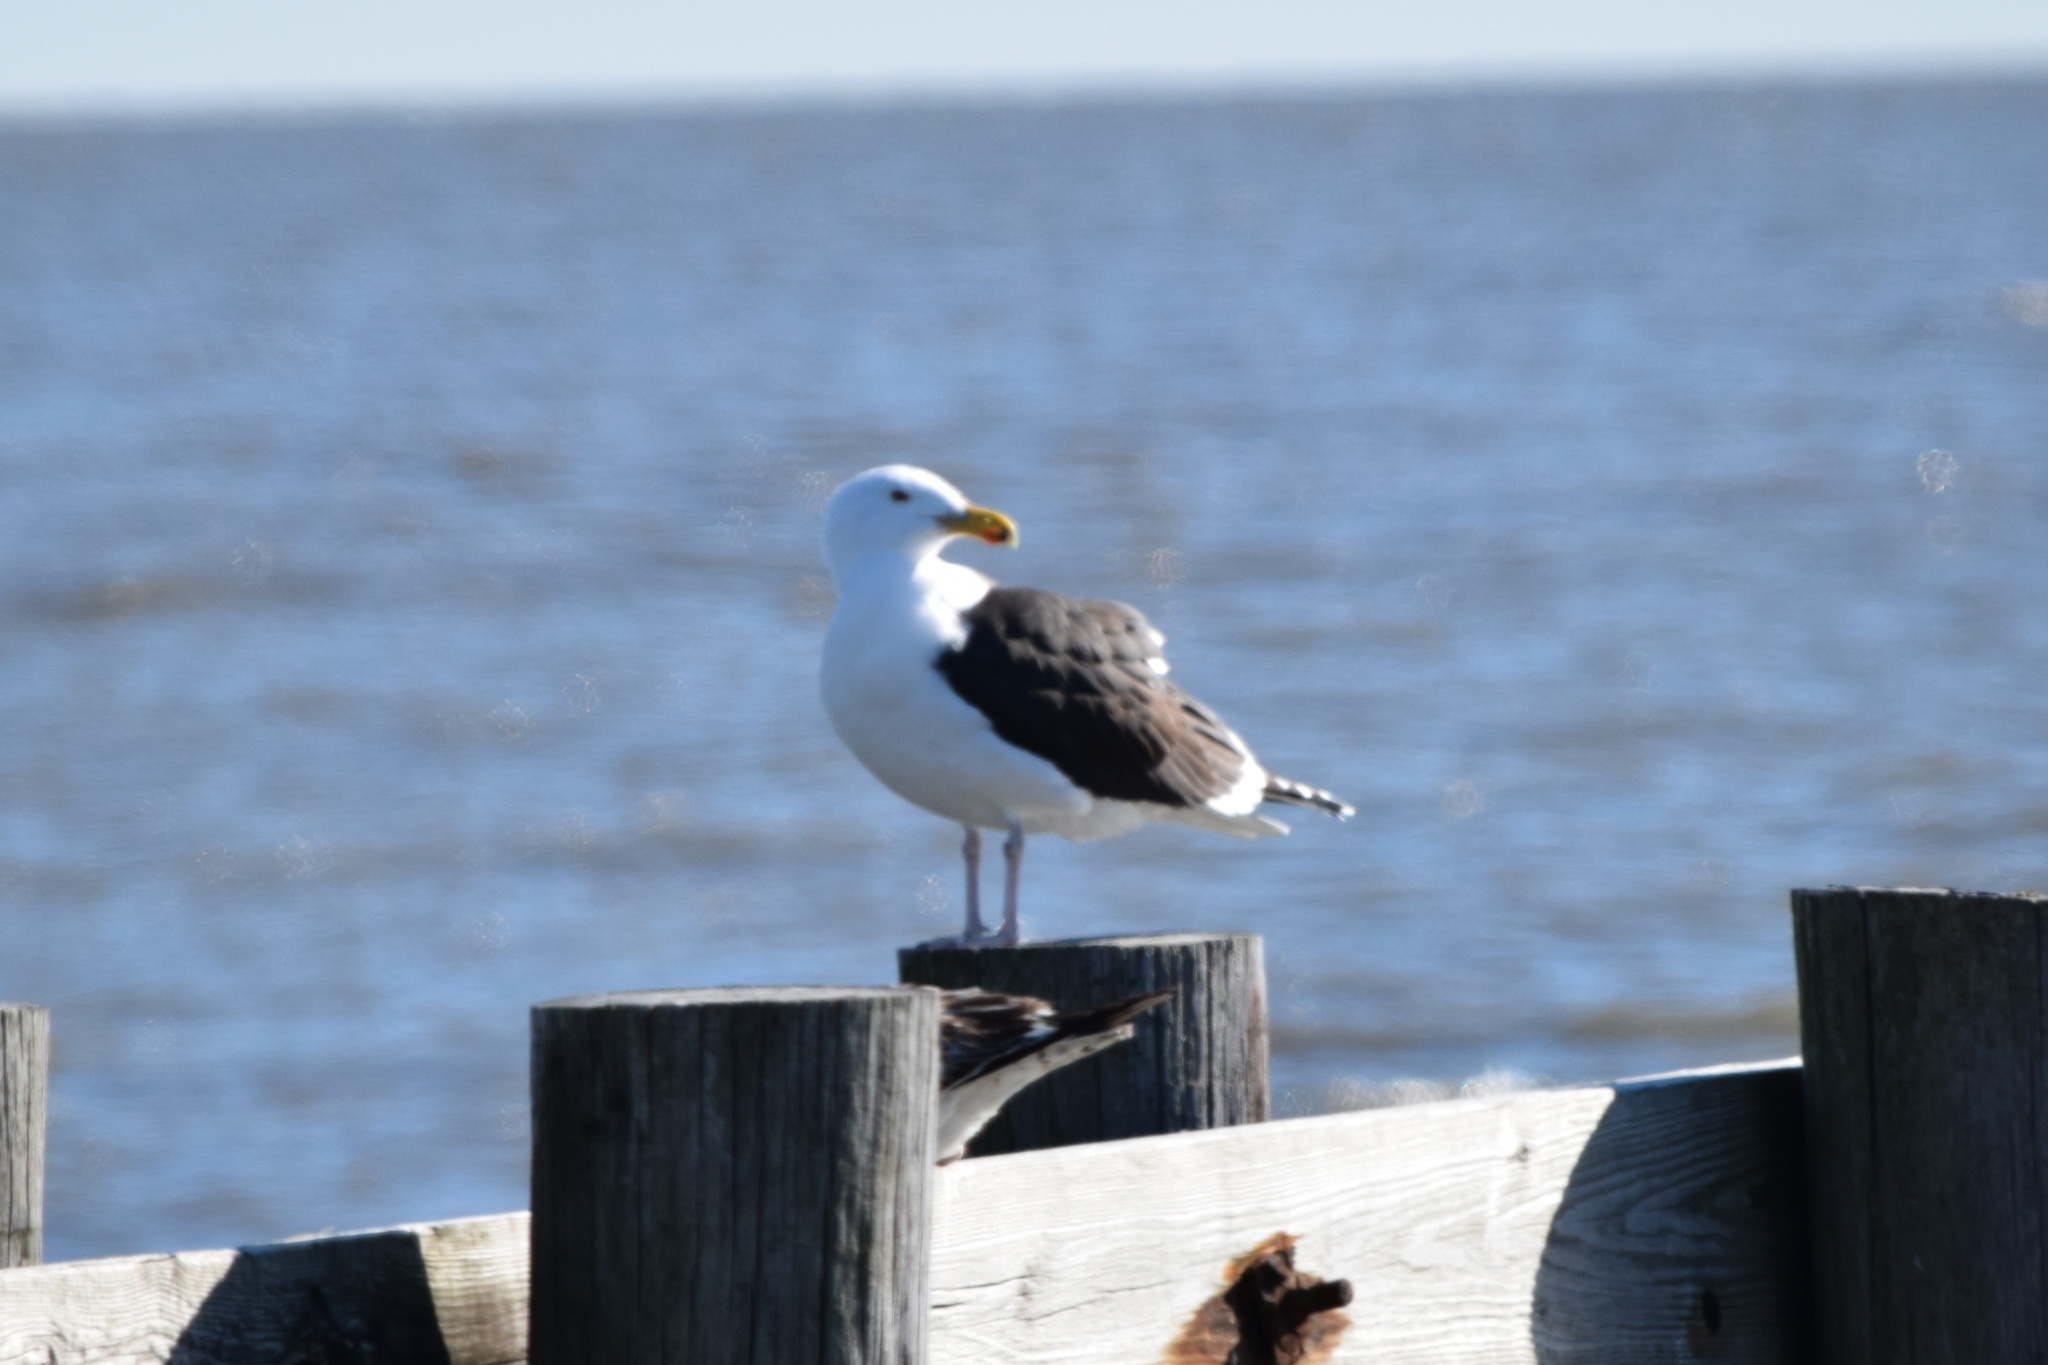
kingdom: Animalia
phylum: Chordata
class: Aves
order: Charadriiformes
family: Laridae
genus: Larus
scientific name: Larus marinus
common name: Great black-backed gull
